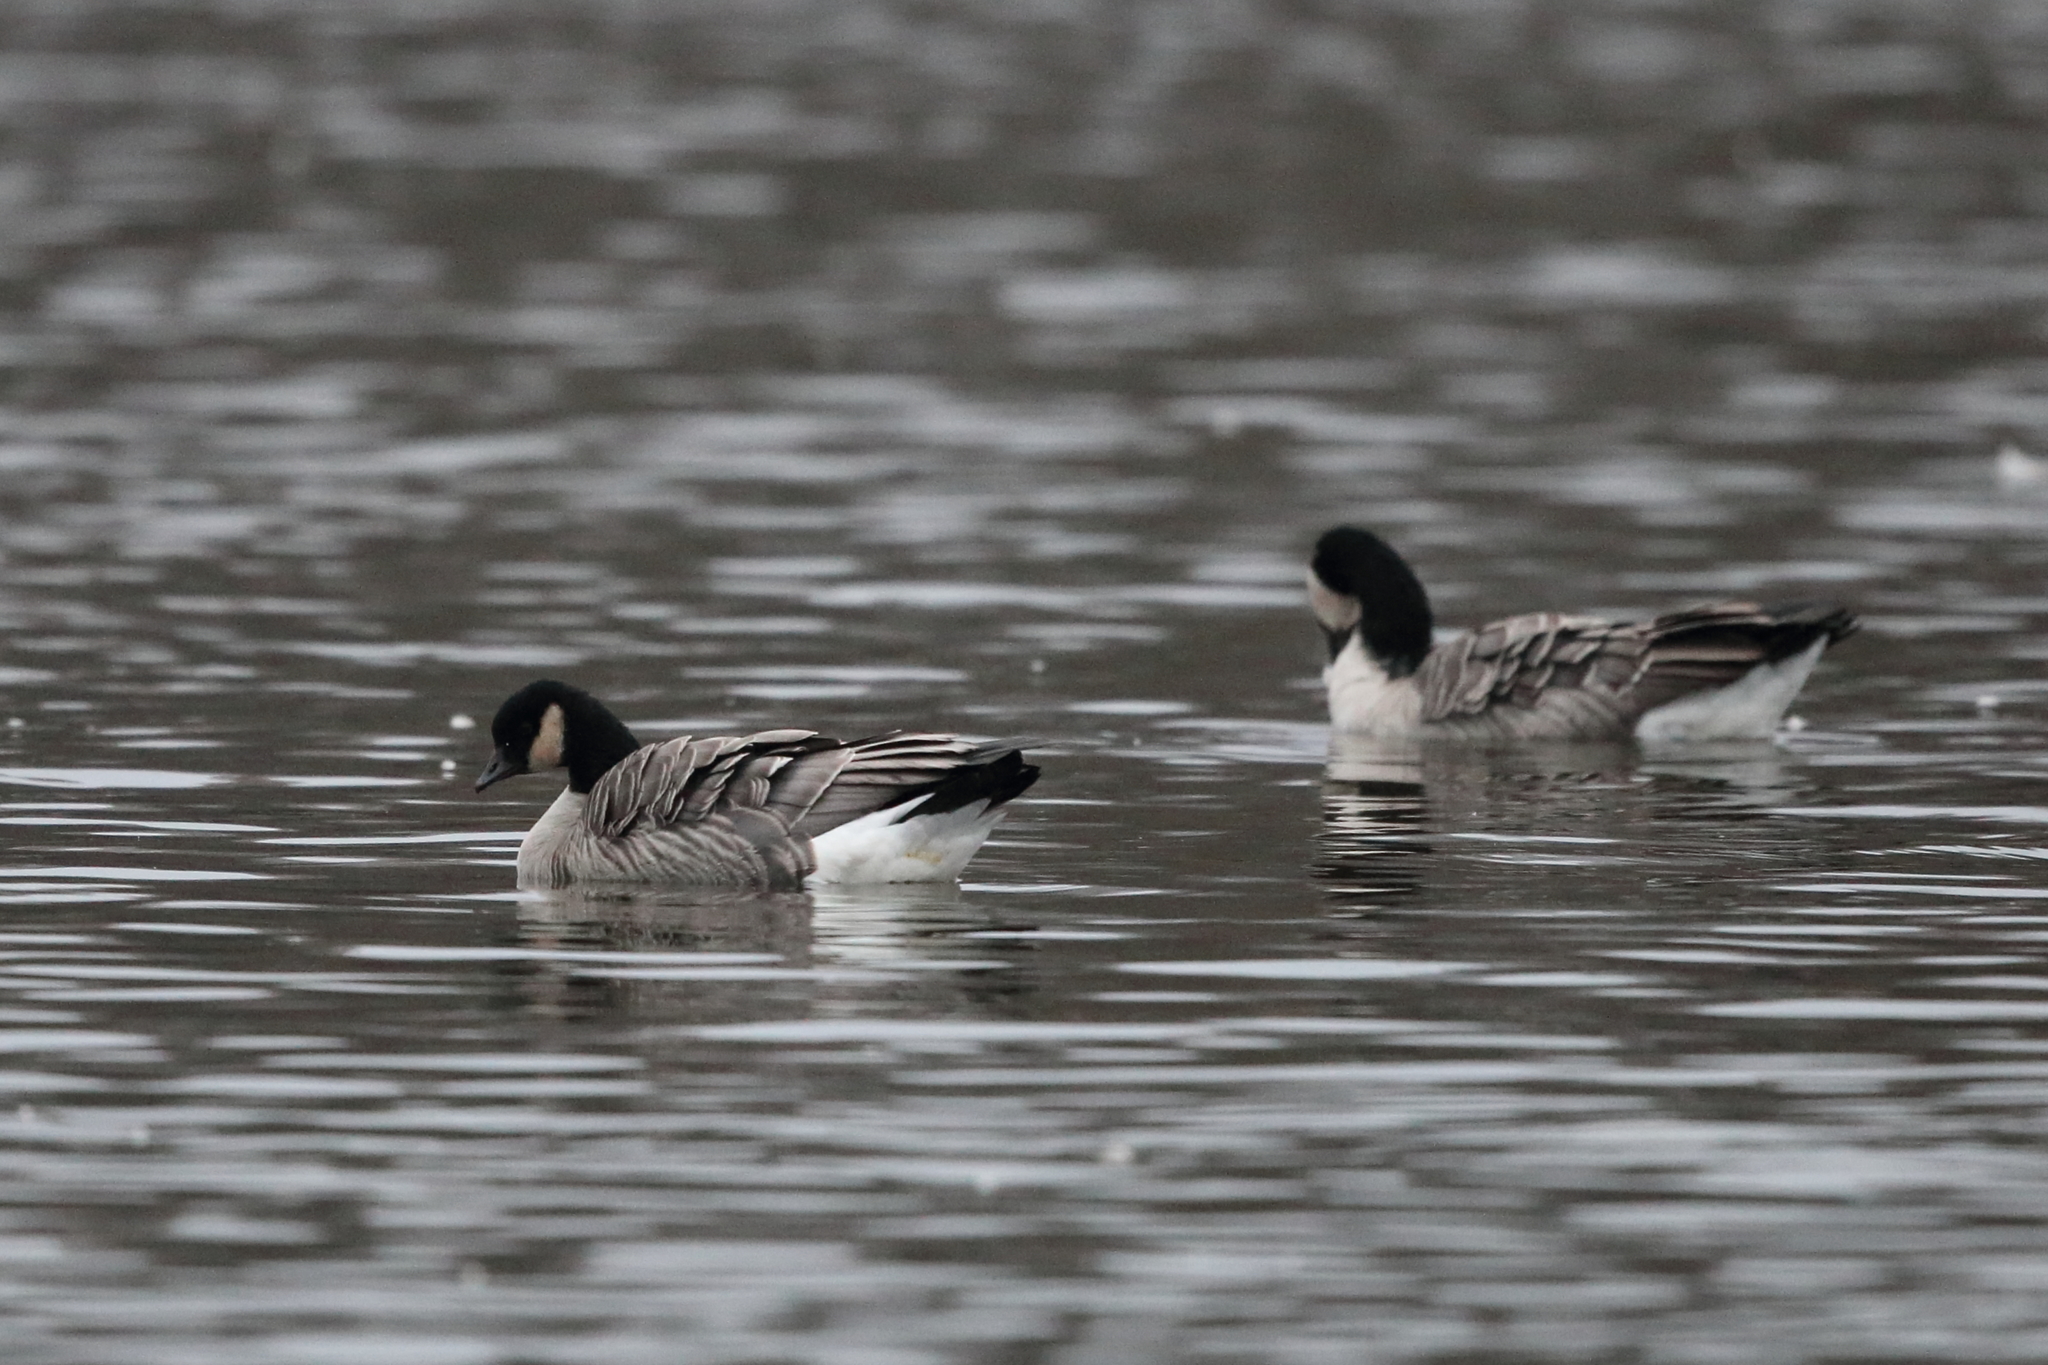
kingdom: Animalia
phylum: Chordata
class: Aves
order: Anseriformes
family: Anatidae
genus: Branta
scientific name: Branta hutchinsii
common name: Cackling goose
